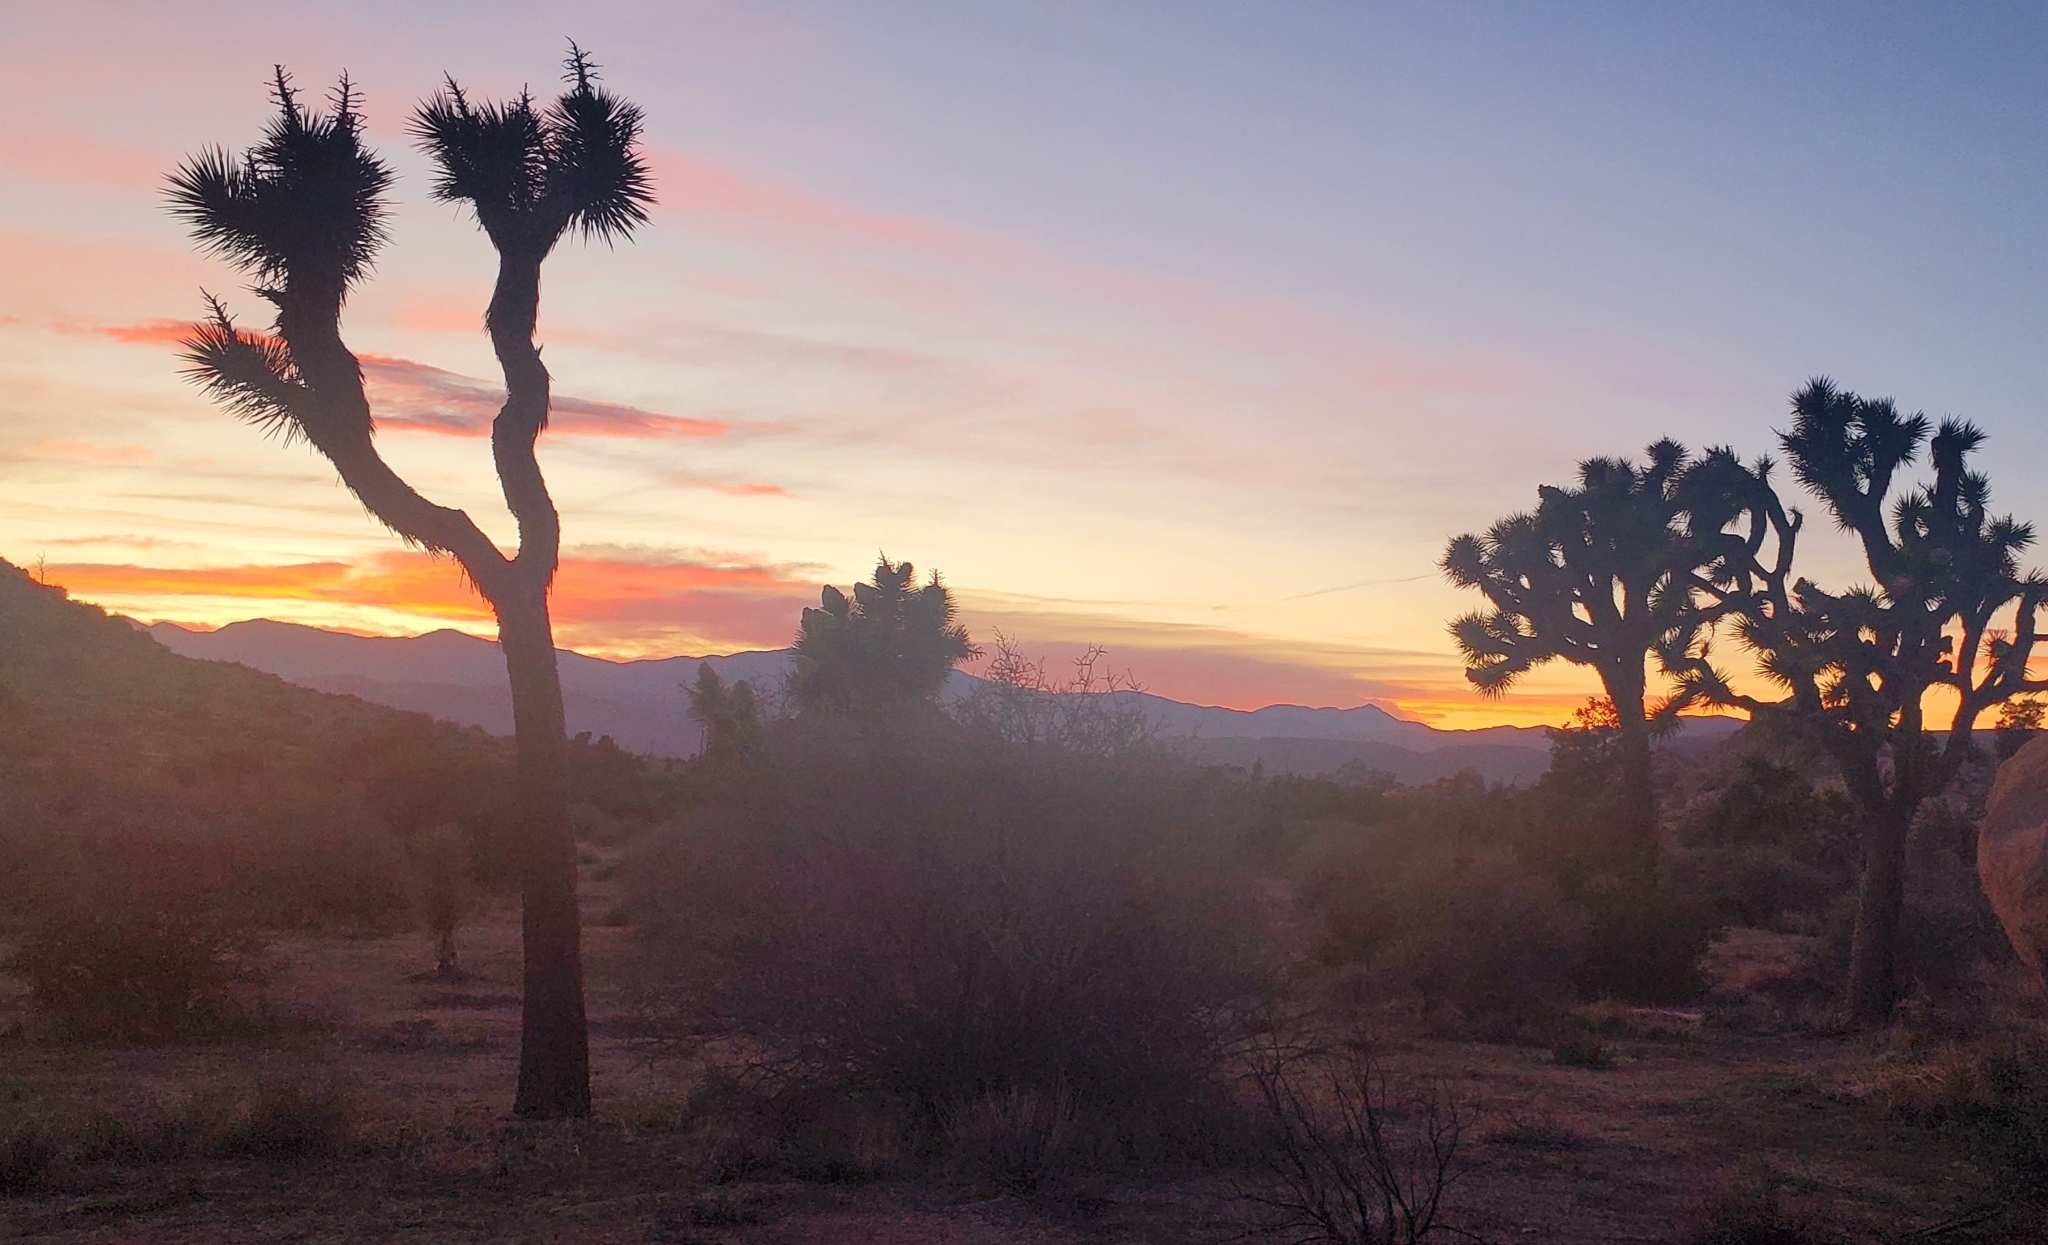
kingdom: Plantae
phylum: Tracheophyta
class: Liliopsida
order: Asparagales
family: Asparagaceae
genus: Yucca
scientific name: Yucca brevifolia
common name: Joshua tree
